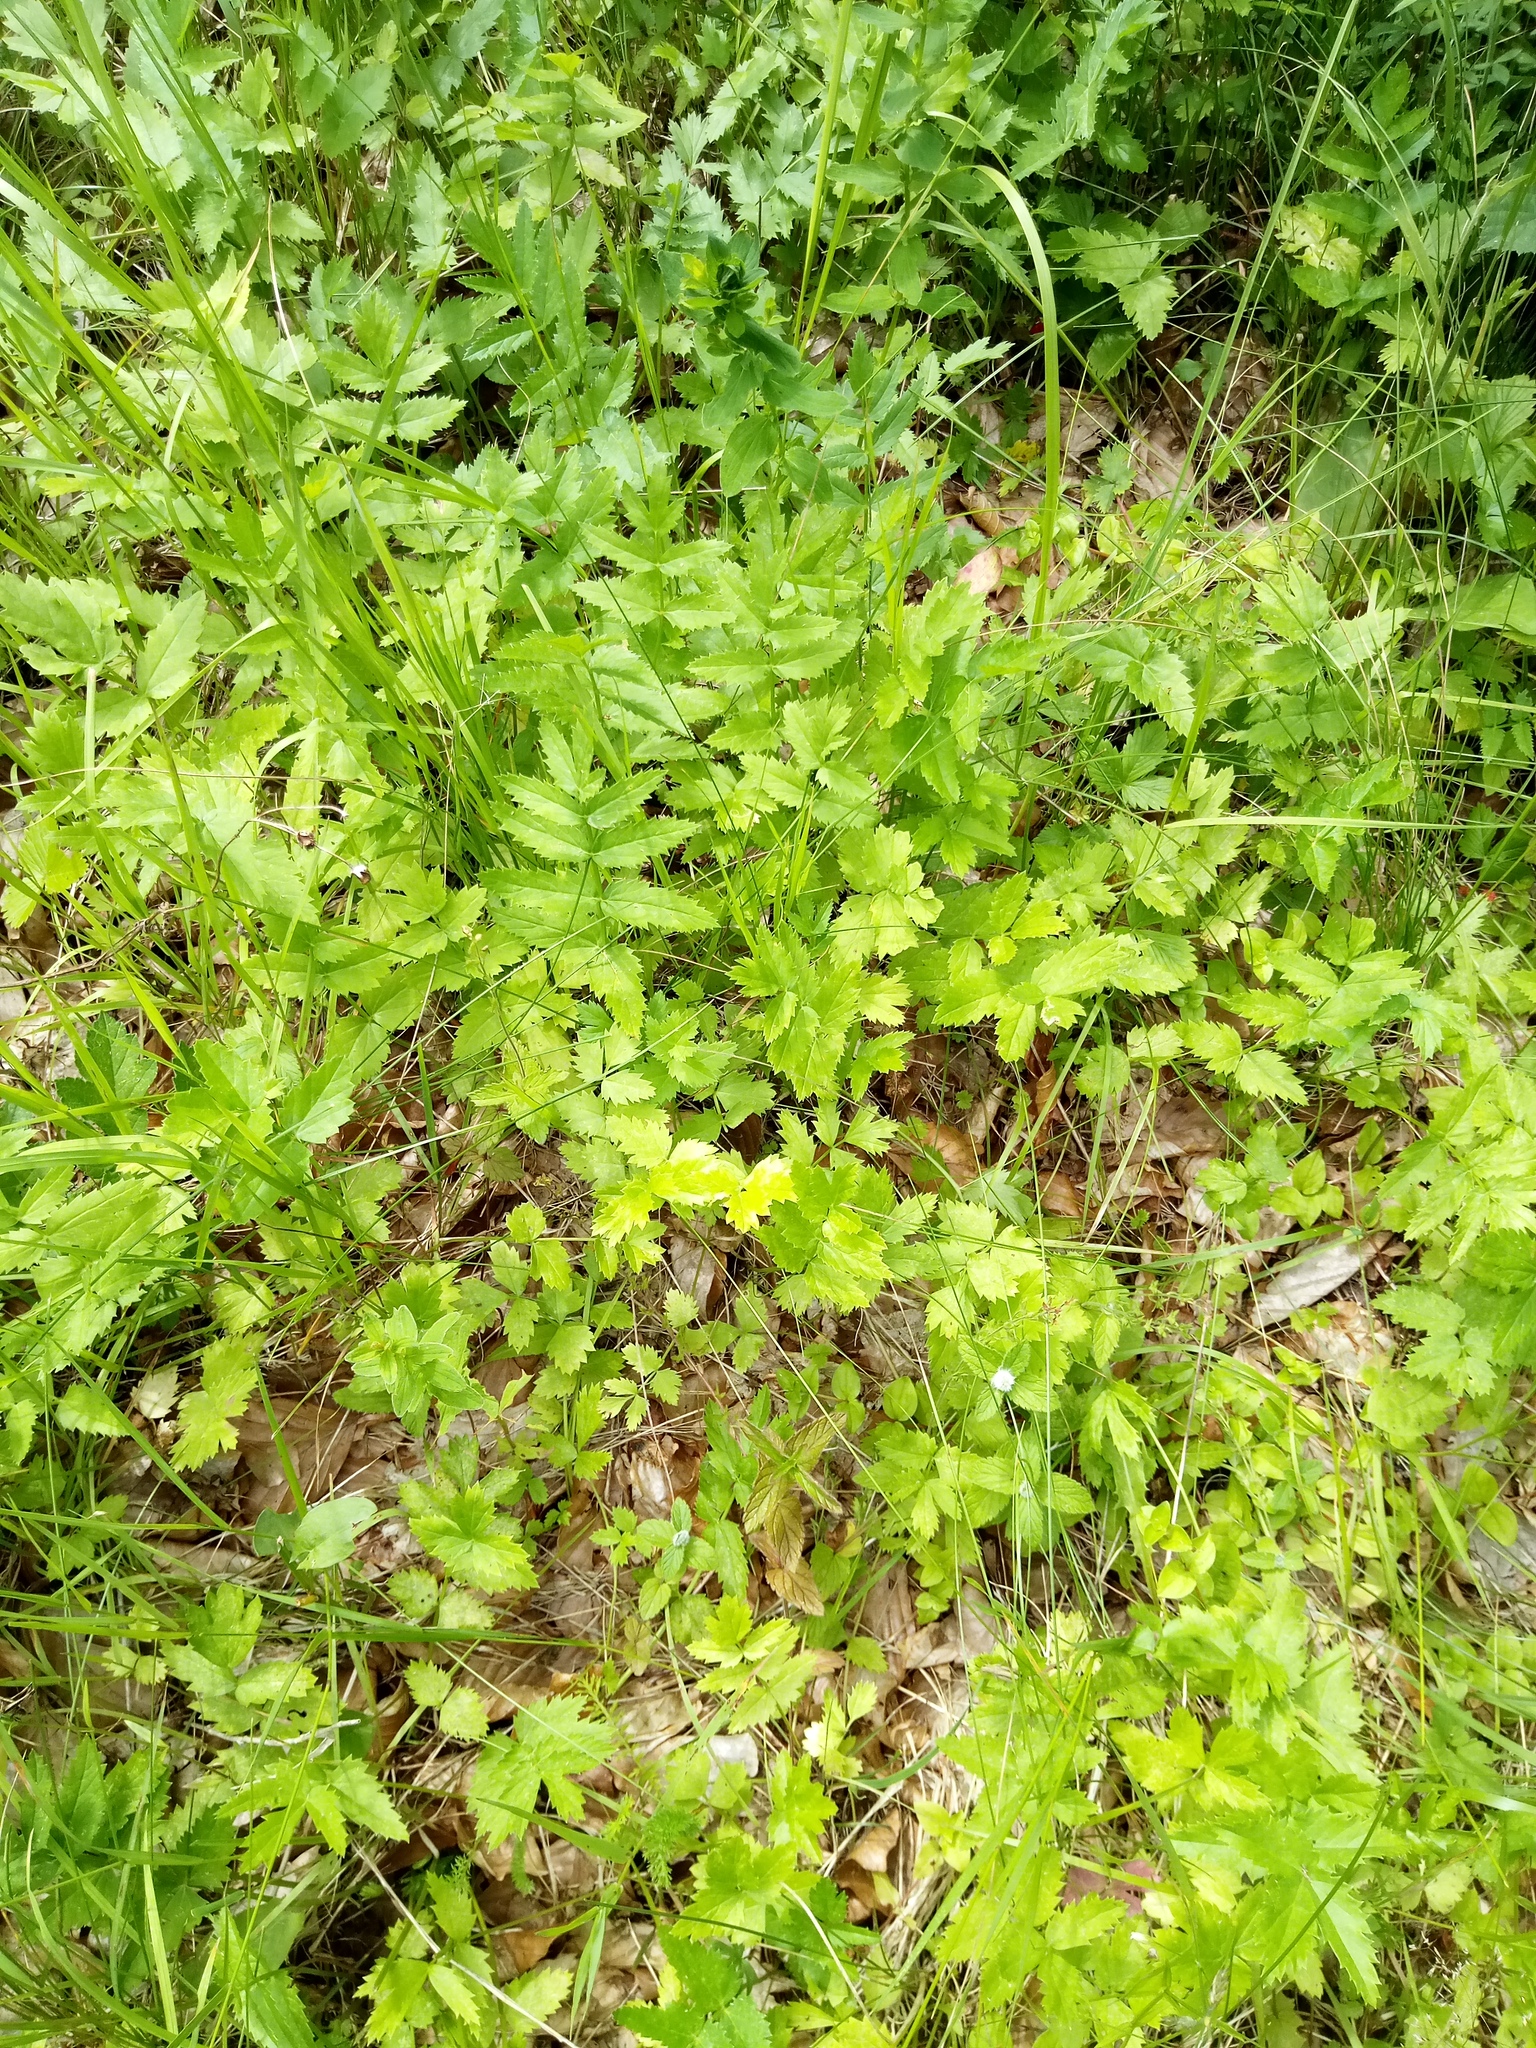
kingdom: Plantae
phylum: Tracheophyta
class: Magnoliopsida
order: Apiales
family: Apiaceae
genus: Pimpinella
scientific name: Pimpinella major
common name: Greater burnet-saxifrage
